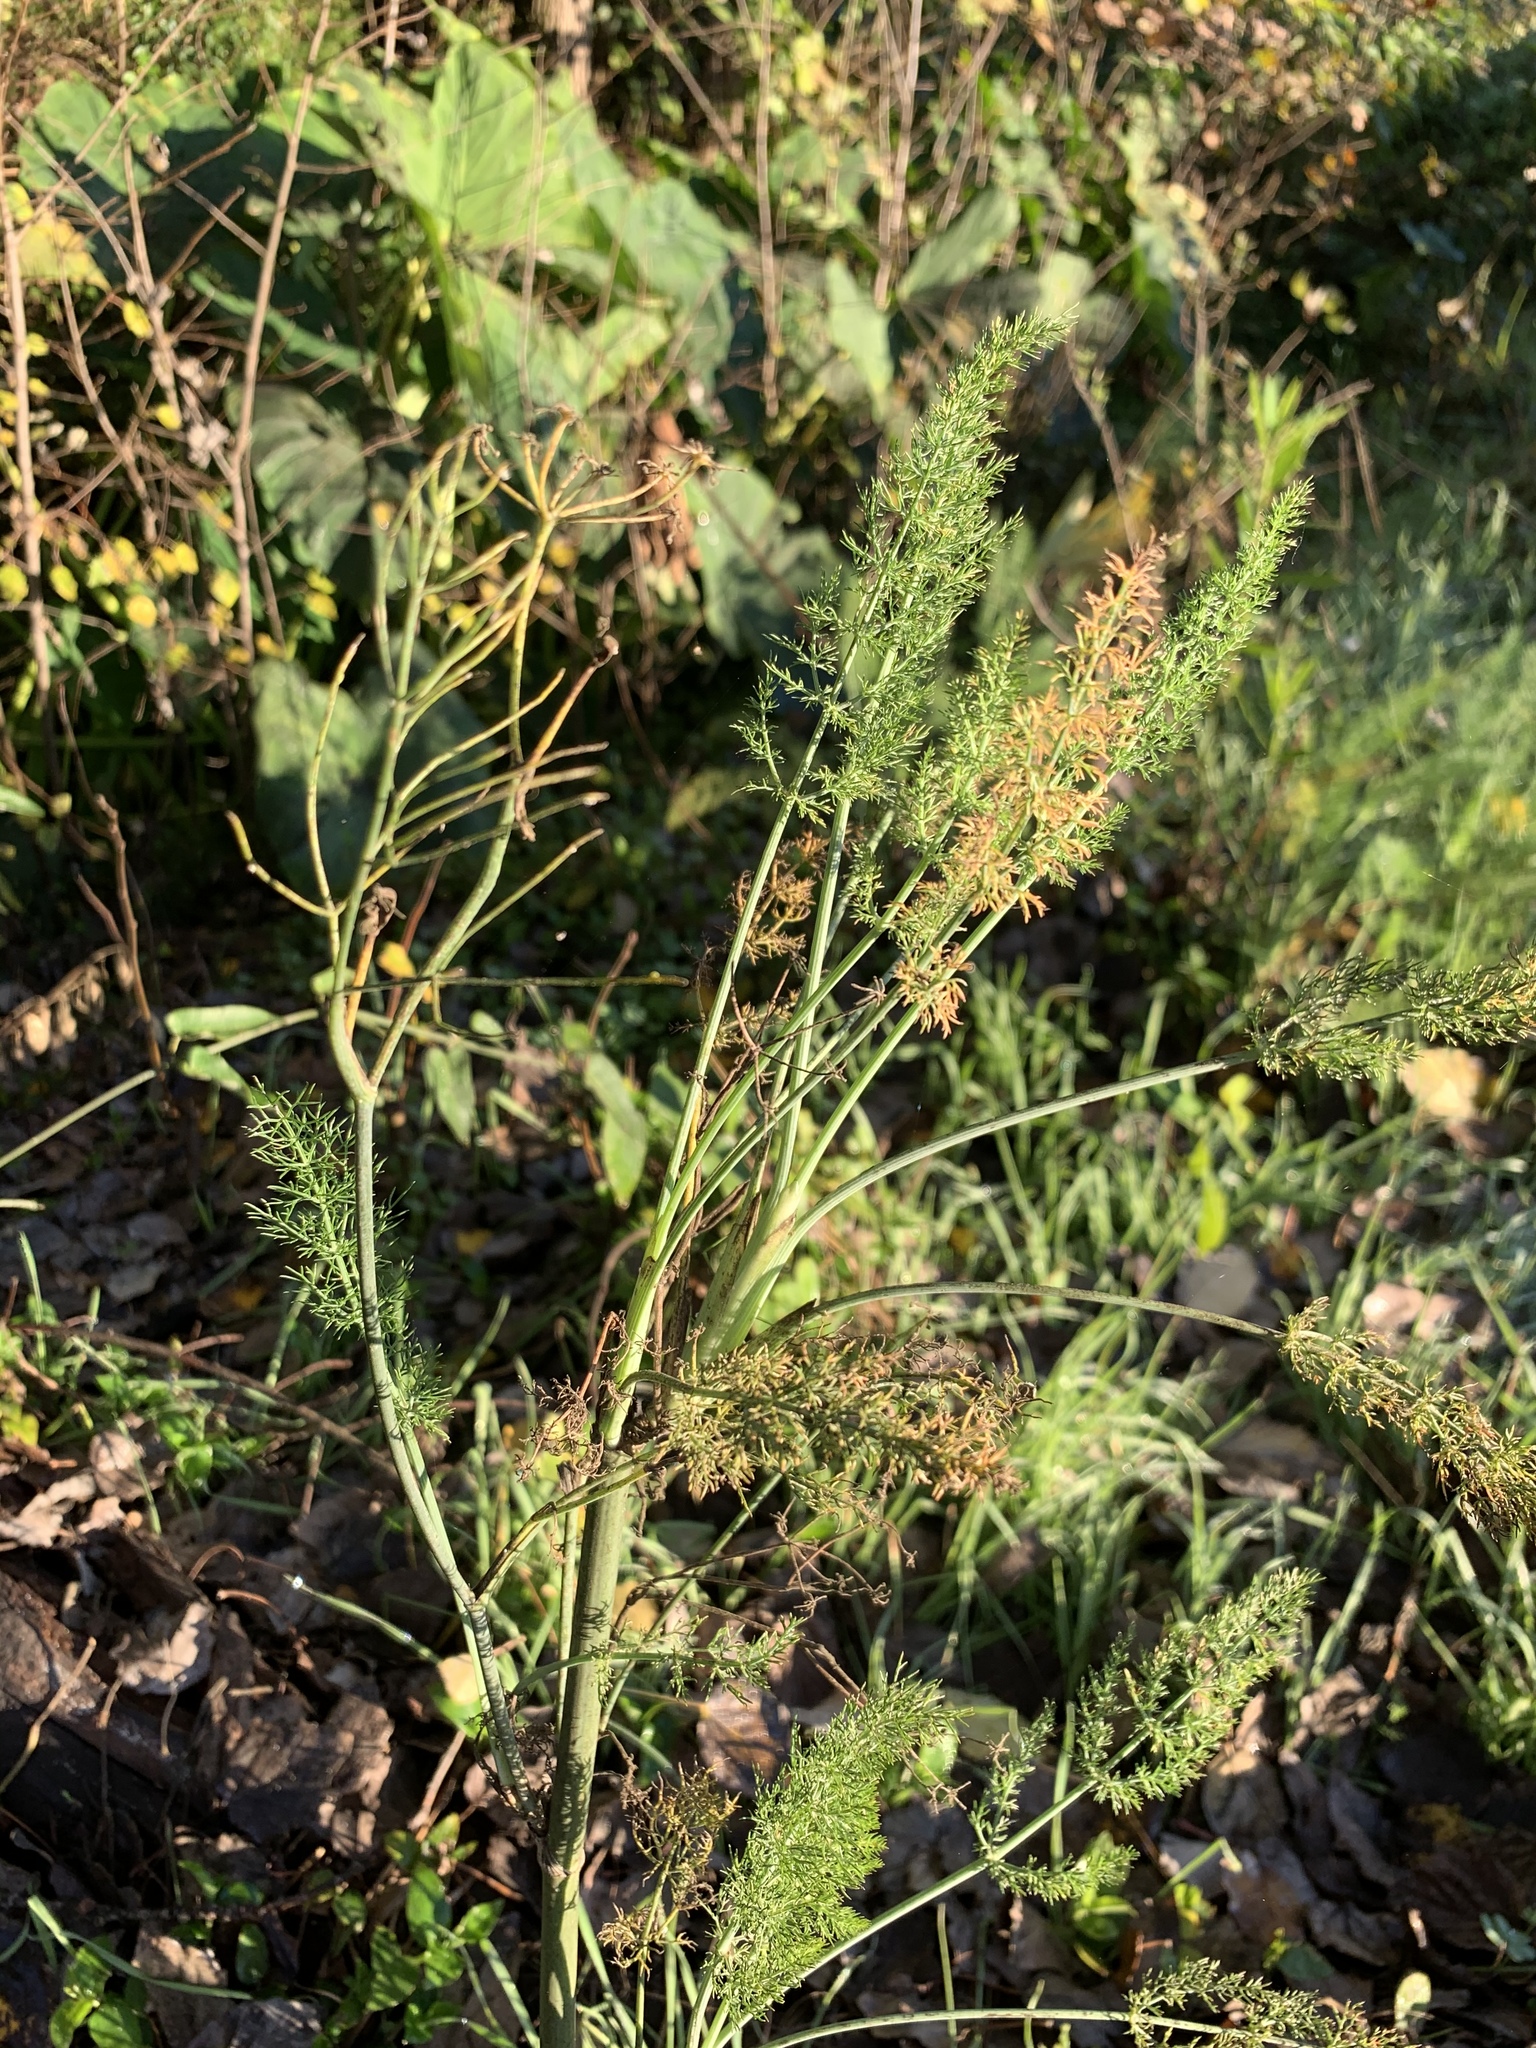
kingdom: Plantae
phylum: Tracheophyta
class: Magnoliopsida
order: Apiales
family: Apiaceae
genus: Foeniculum
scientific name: Foeniculum vulgare
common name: Fennel
